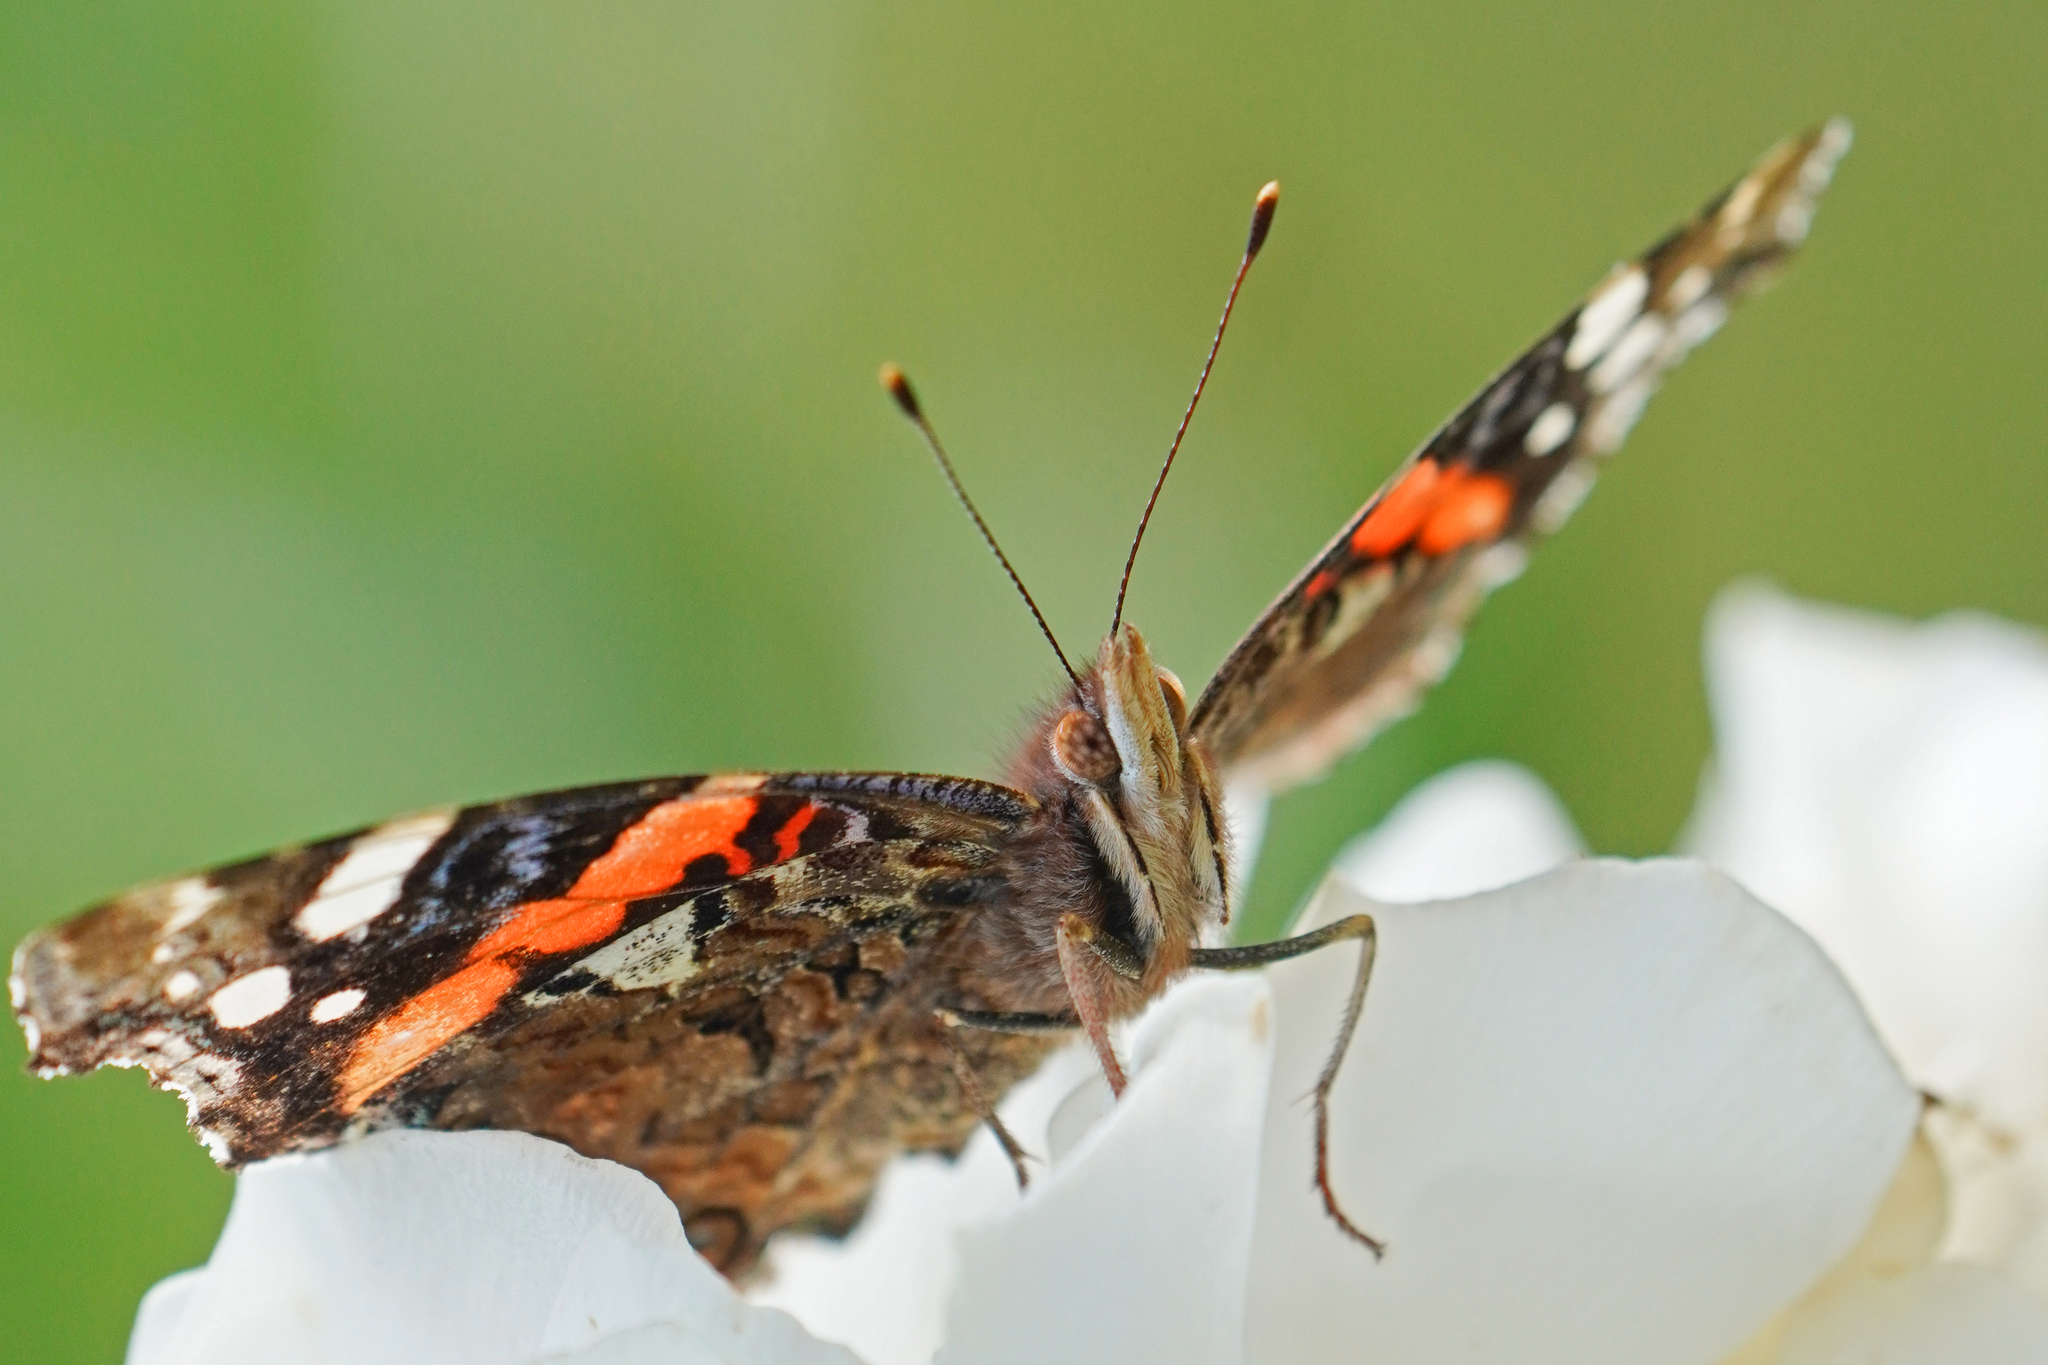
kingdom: Animalia
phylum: Arthropoda
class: Insecta
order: Lepidoptera
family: Nymphalidae
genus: Vanessa
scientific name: Vanessa atalanta
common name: Red admiral
